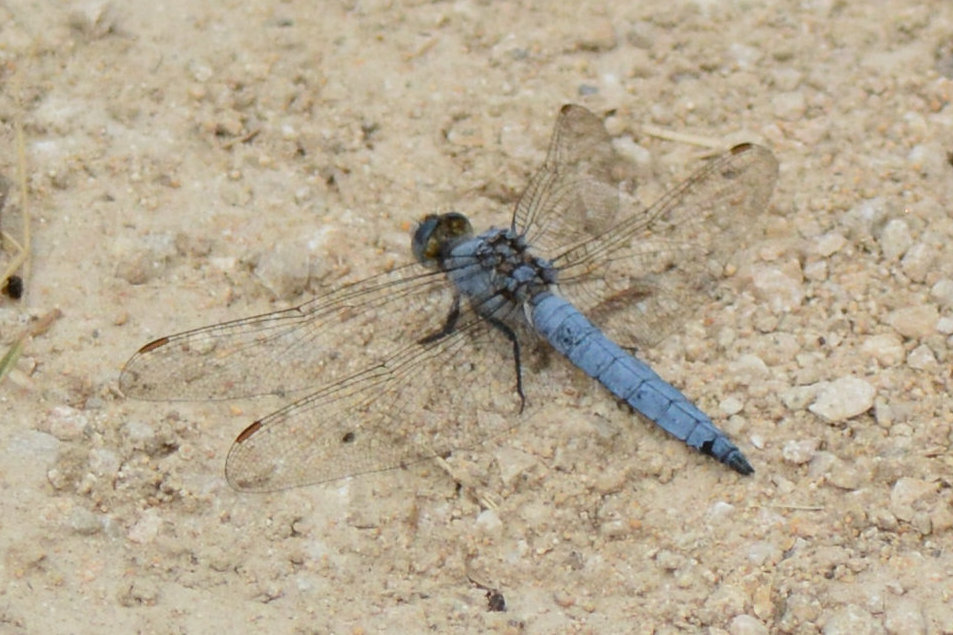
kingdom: Animalia
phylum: Arthropoda
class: Insecta
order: Odonata
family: Libellulidae
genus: Orthetrum
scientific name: Orthetrum brunneum
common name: Southern skimmer
